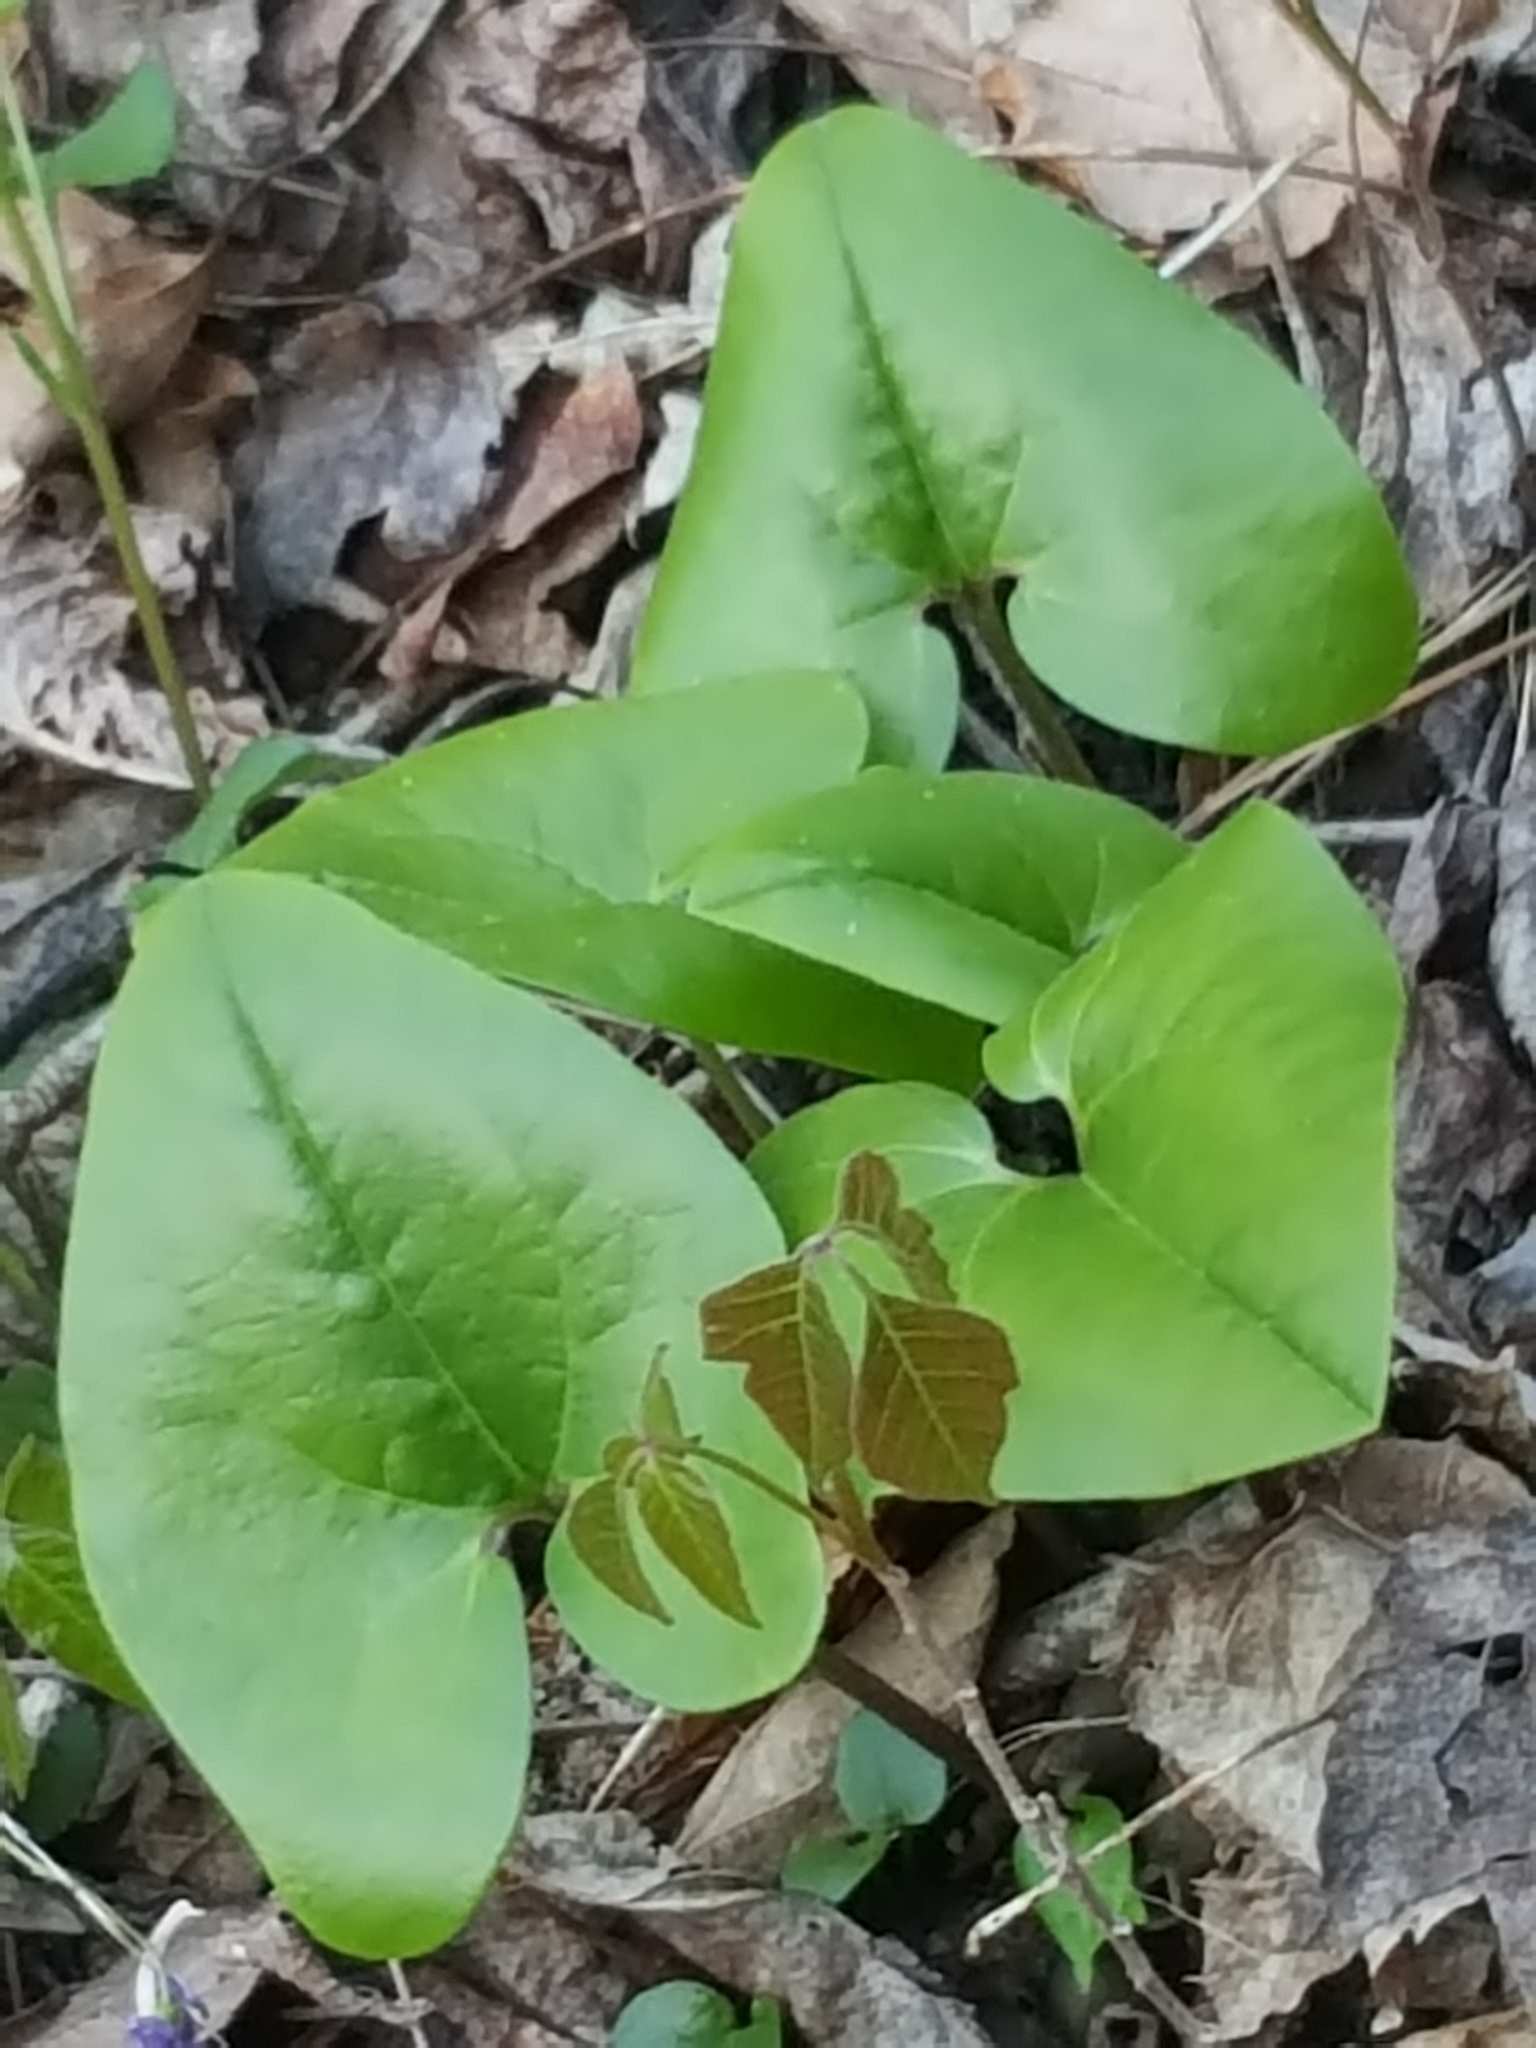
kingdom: Plantae
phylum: Tracheophyta
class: Magnoliopsida
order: Piperales
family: Aristolochiaceae
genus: Hexastylis
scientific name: Hexastylis arifolia
